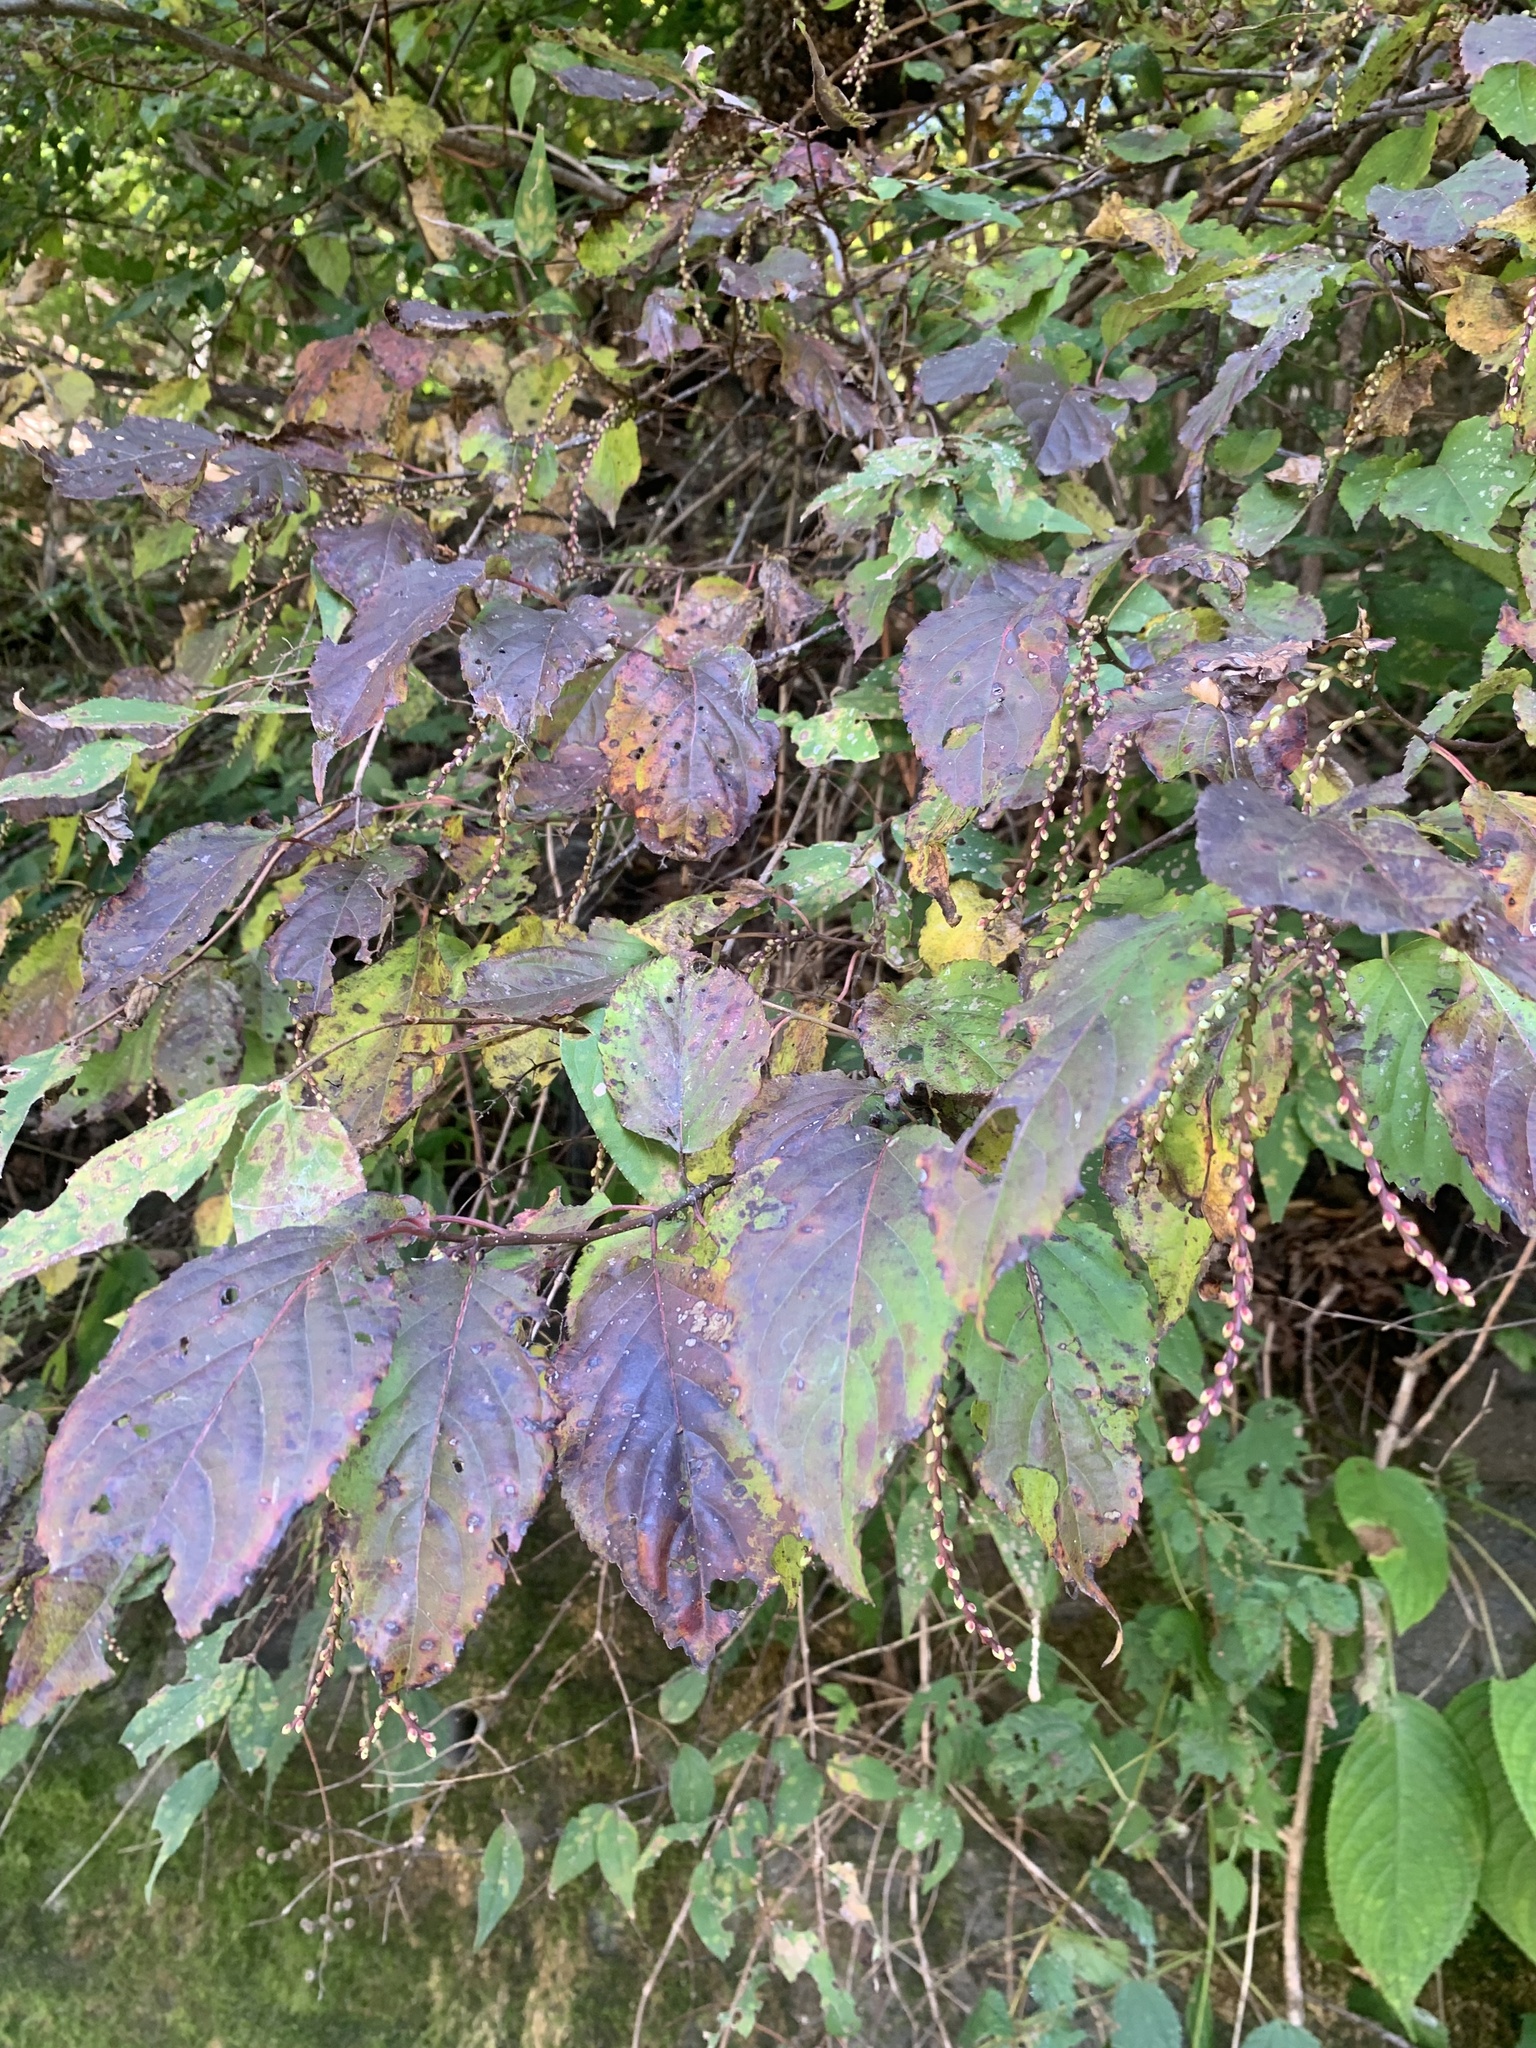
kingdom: Plantae
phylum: Tracheophyta
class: Magnoliopsida
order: Crossosomatales
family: Stachyuraceae
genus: Stachyurus
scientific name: Stachyurus praecox
